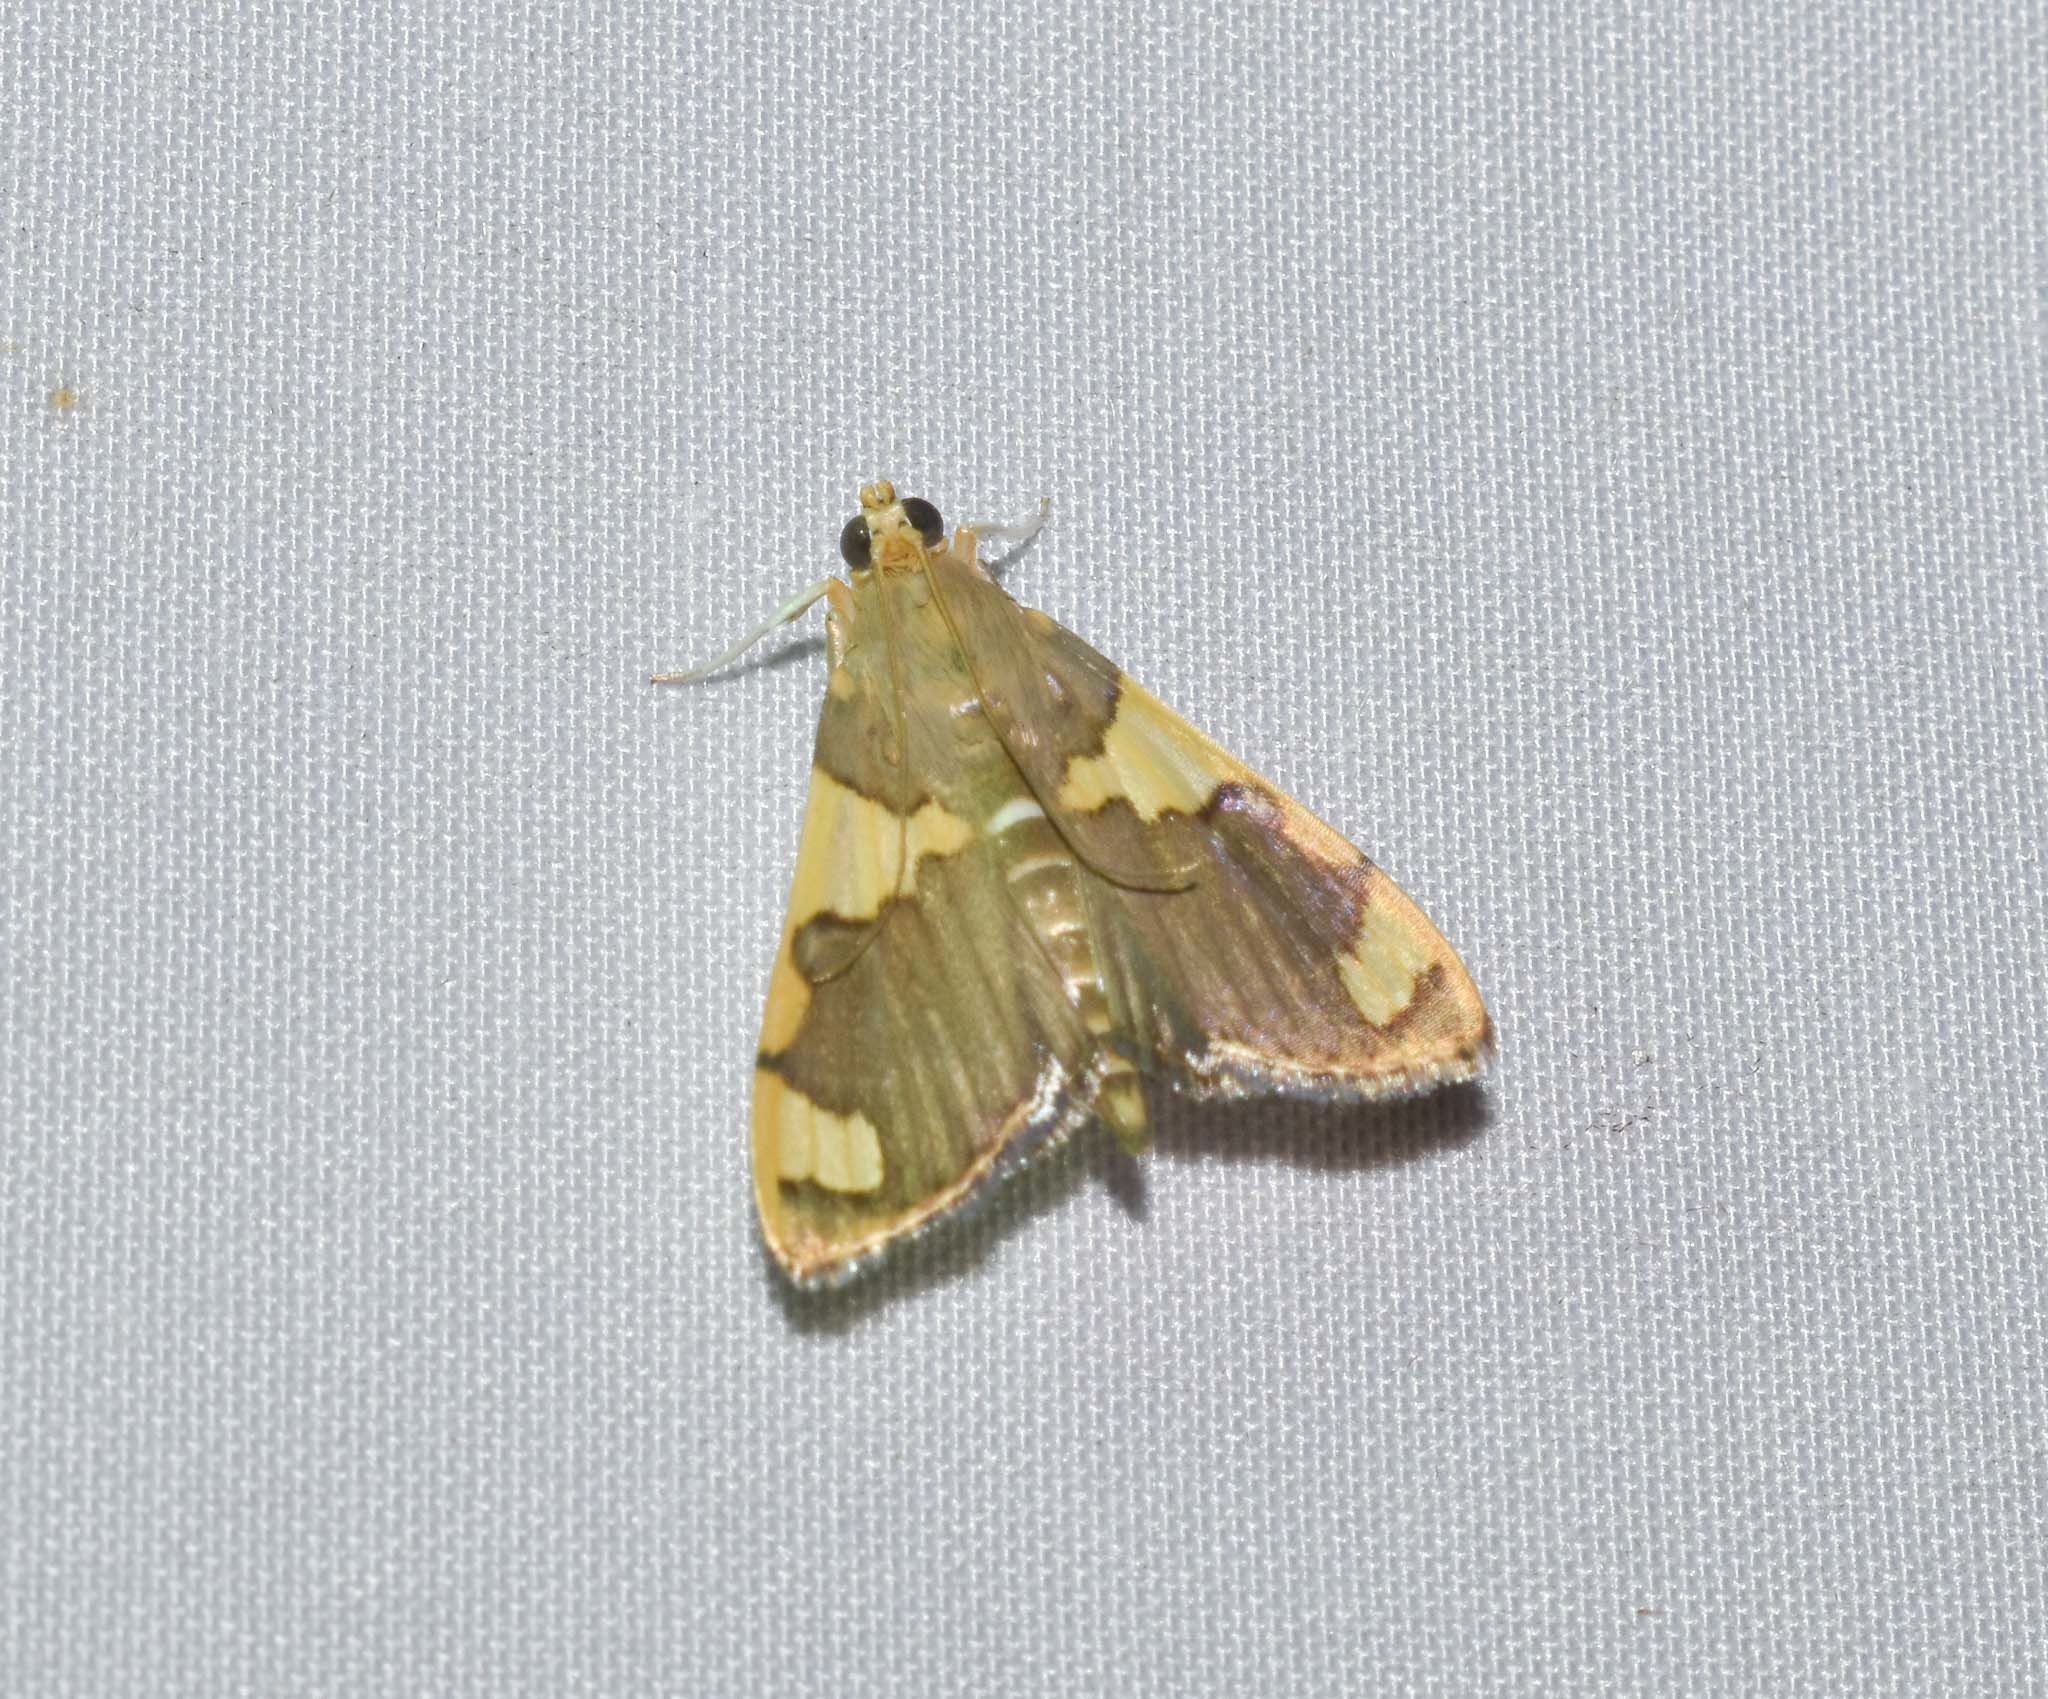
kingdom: Animalia
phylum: Arthropoda
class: Insecta
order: Lepidoptera
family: Crambidae
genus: Rehimena
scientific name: Rehimena phrynealis
